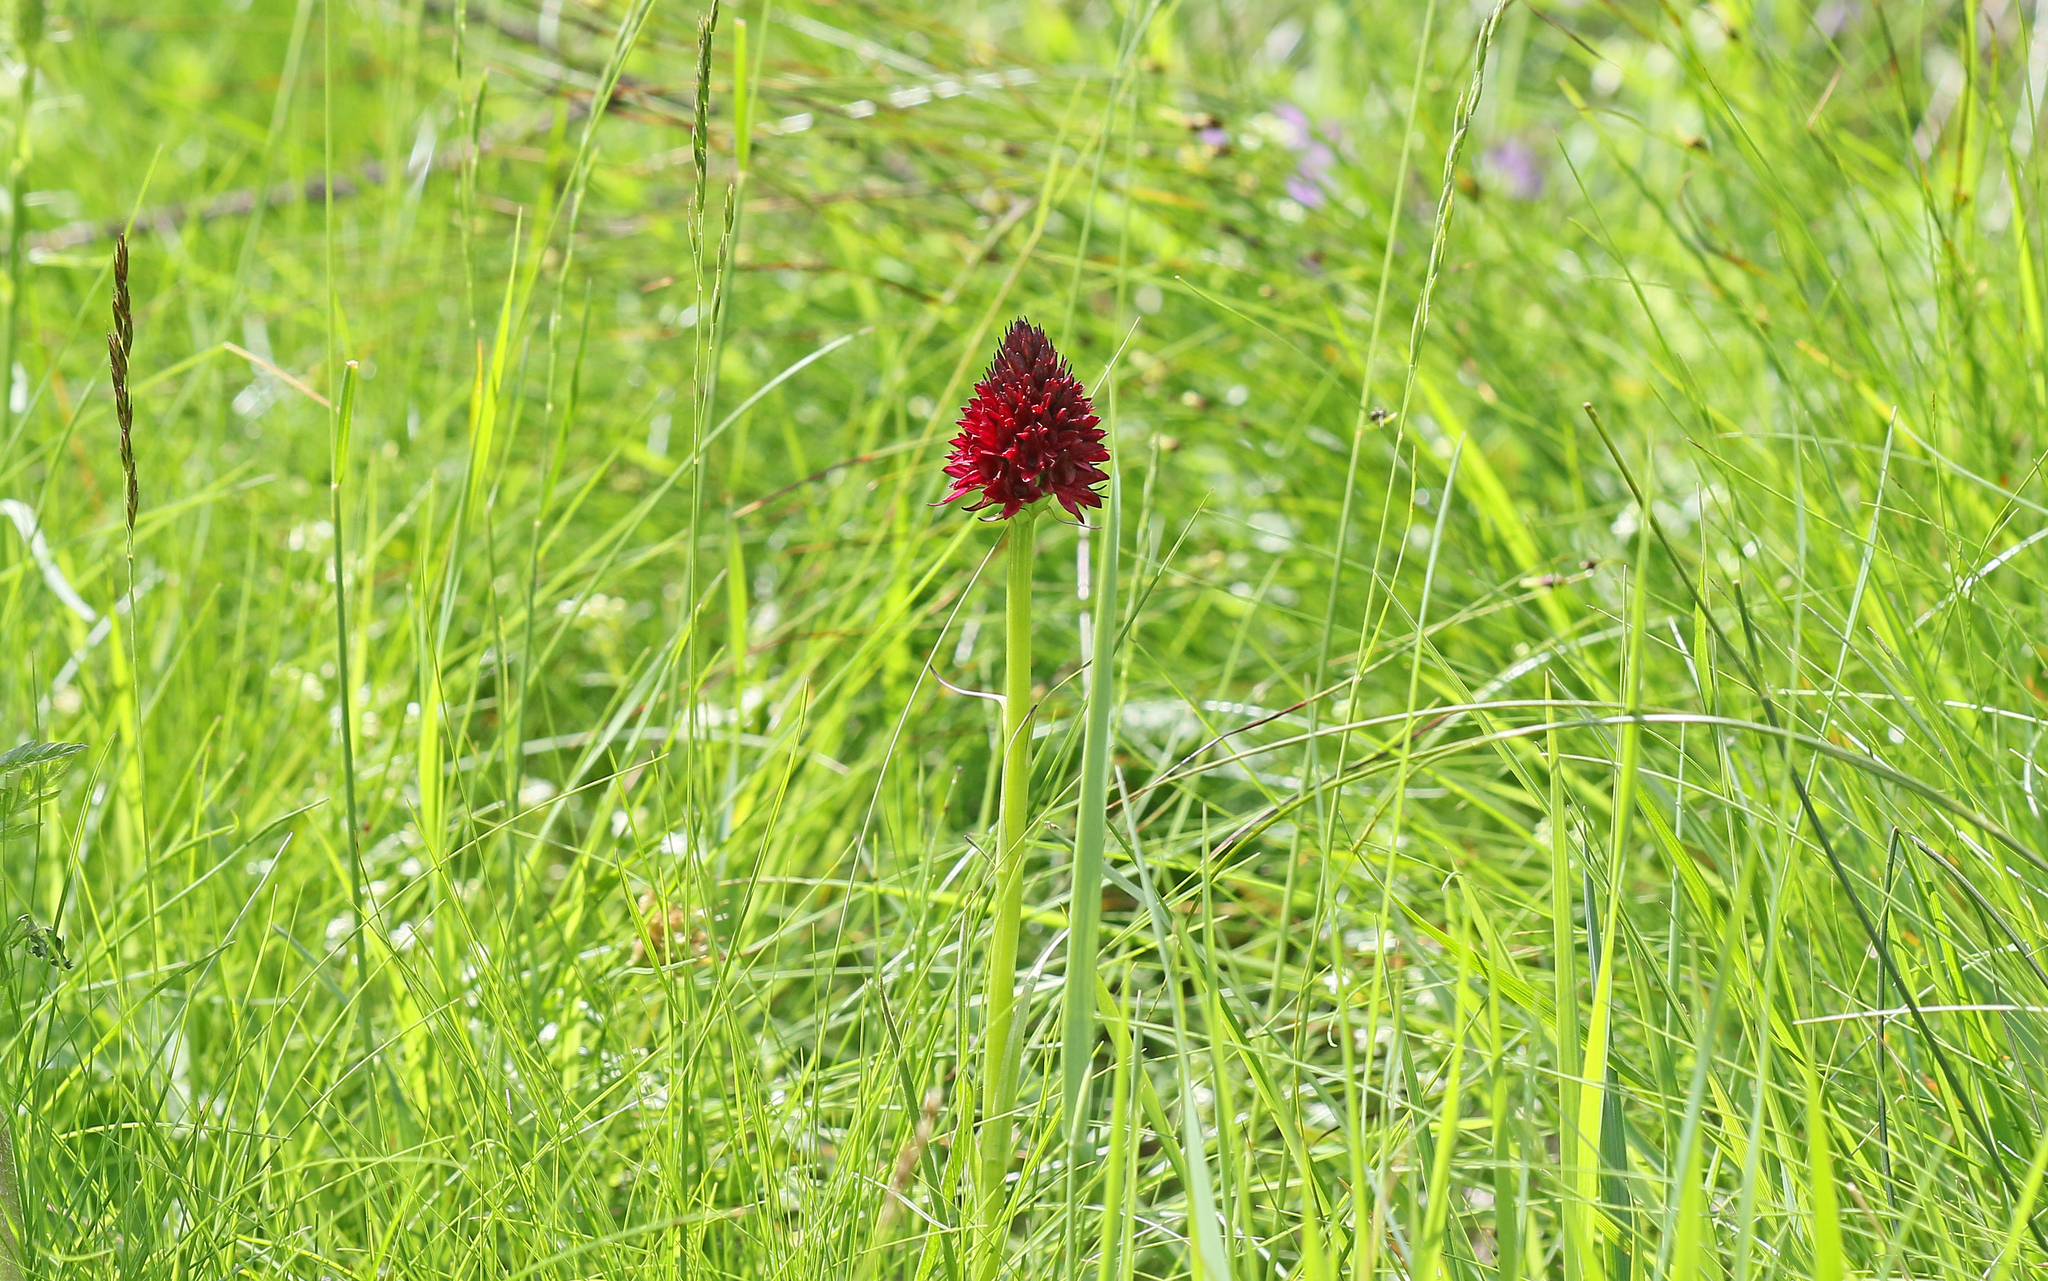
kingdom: Plantae
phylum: Tracheophyta
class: Liliopsida
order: Asparagales
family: Orchidaceae
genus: Gymnadenia
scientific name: Gymnadenia rhellicani
